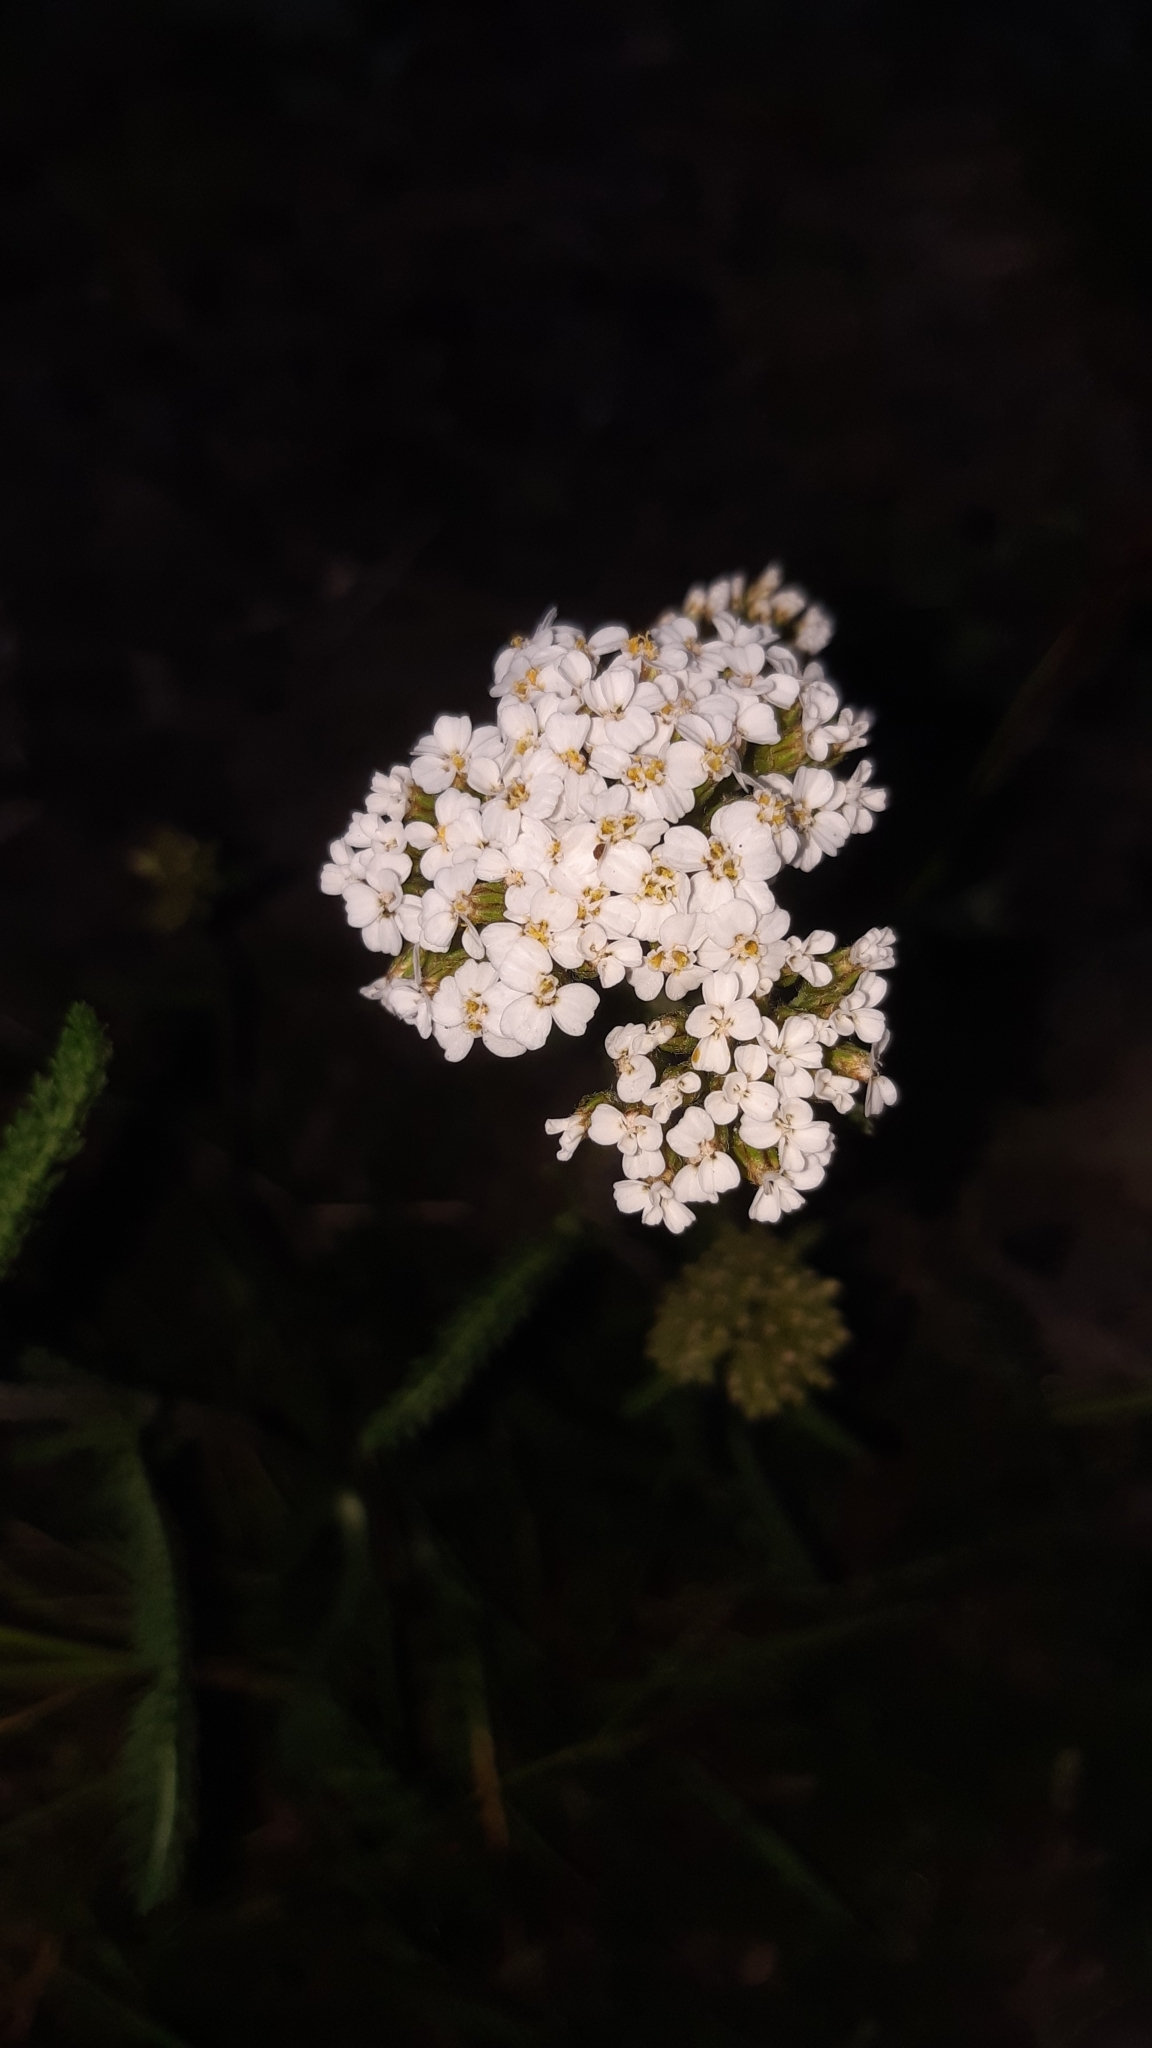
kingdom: Plantae
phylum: Tracheophyta
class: Magnoliopsida
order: Asterales
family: Asteraceae
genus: Achillea
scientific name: Achillea millefolium
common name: Yarrow
